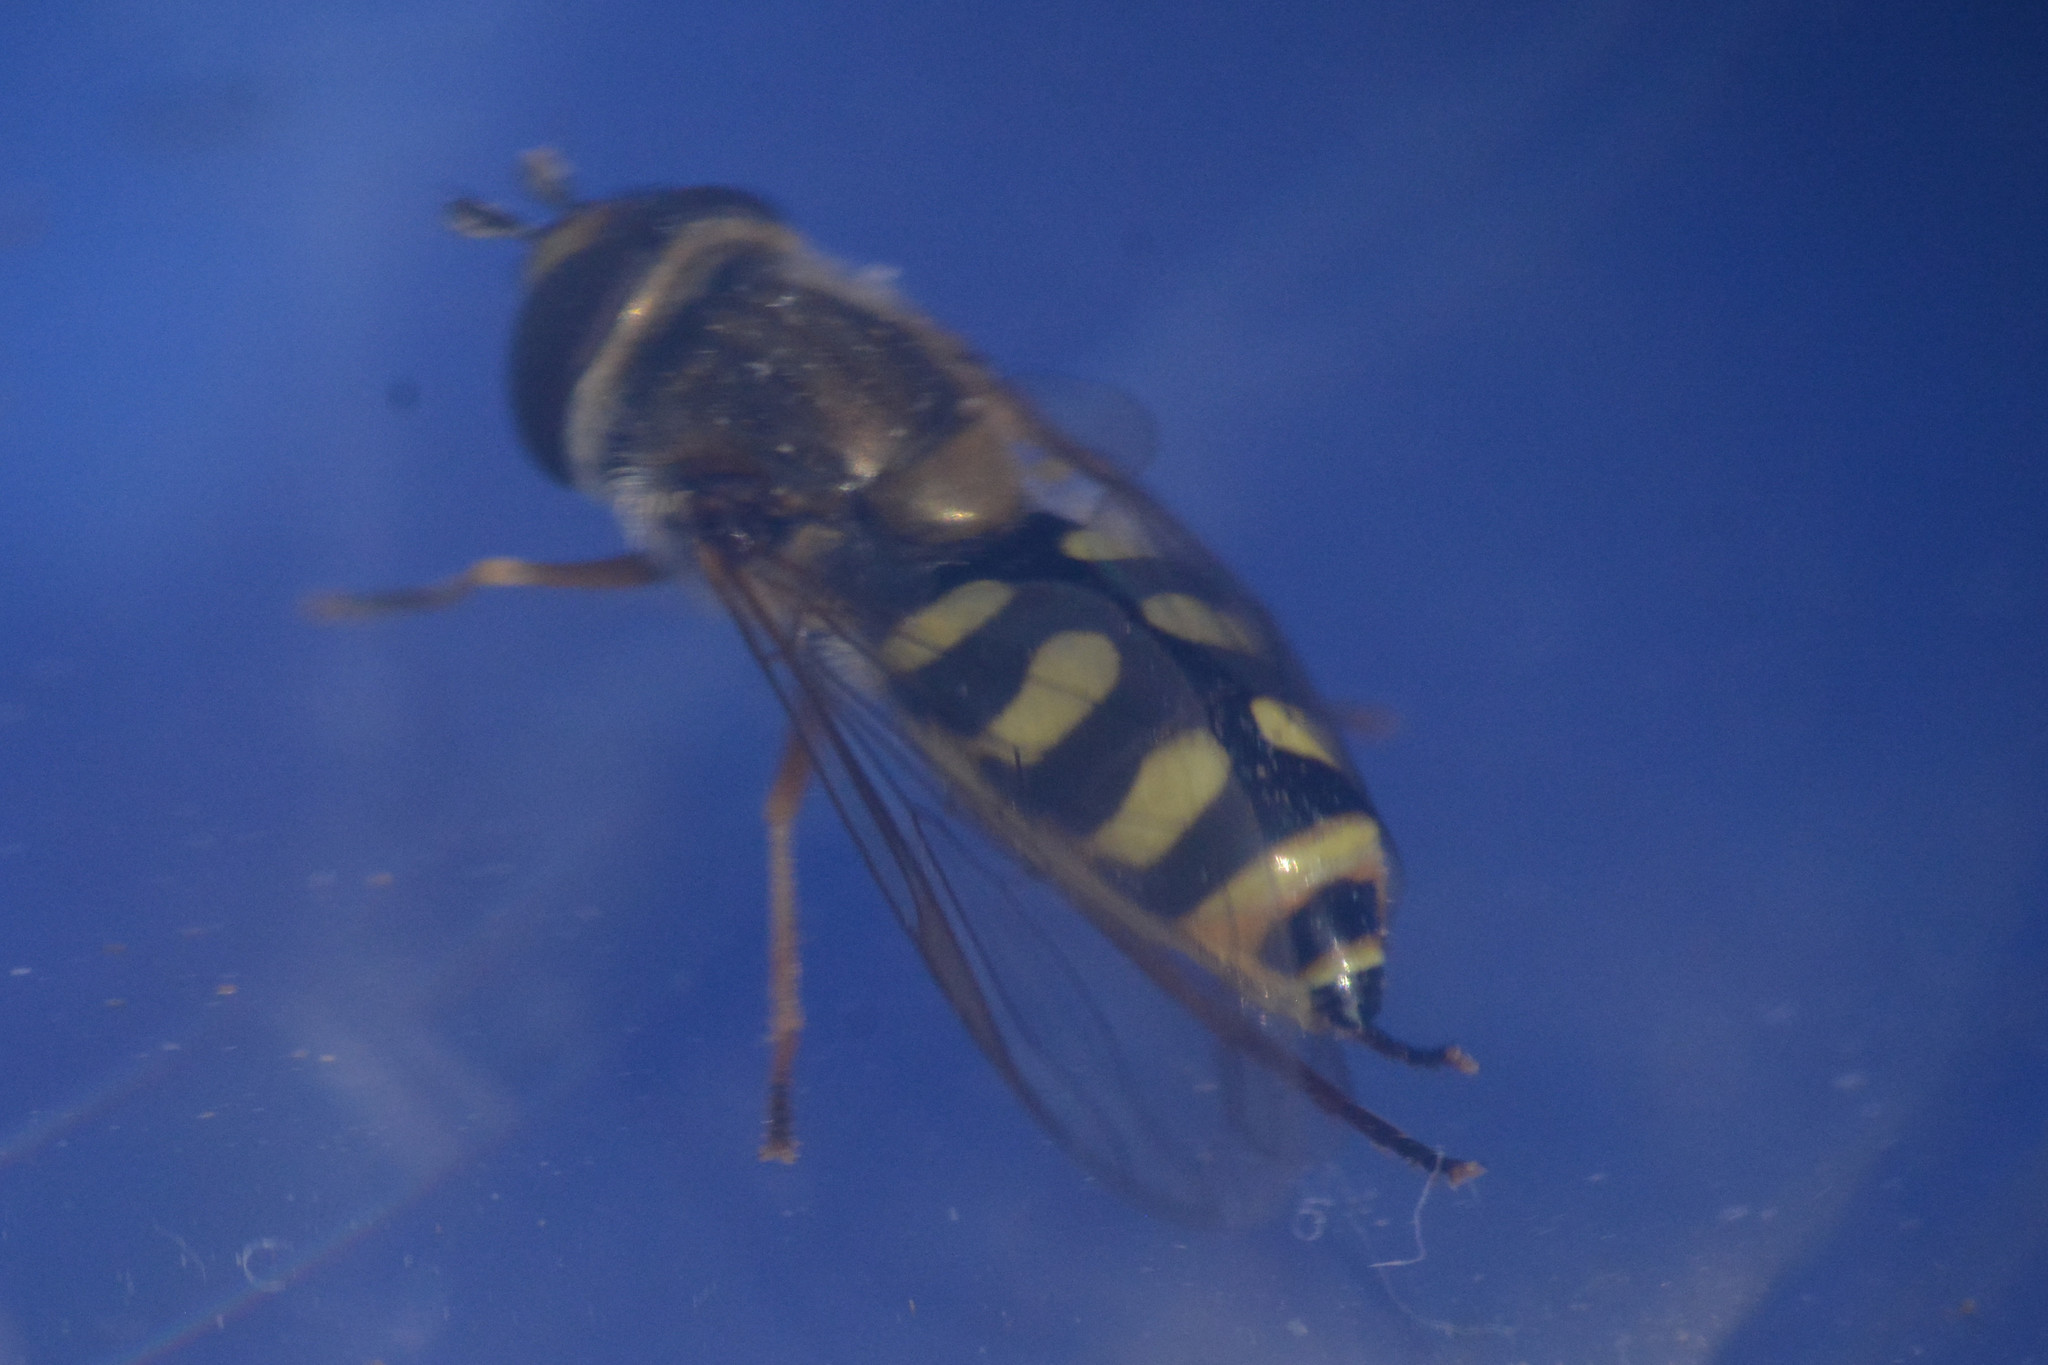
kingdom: Animalia
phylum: Arthropoda
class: Insecta
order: Diptera
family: Syrphidae
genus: Eupeodes
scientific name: Eupeodes corollae
